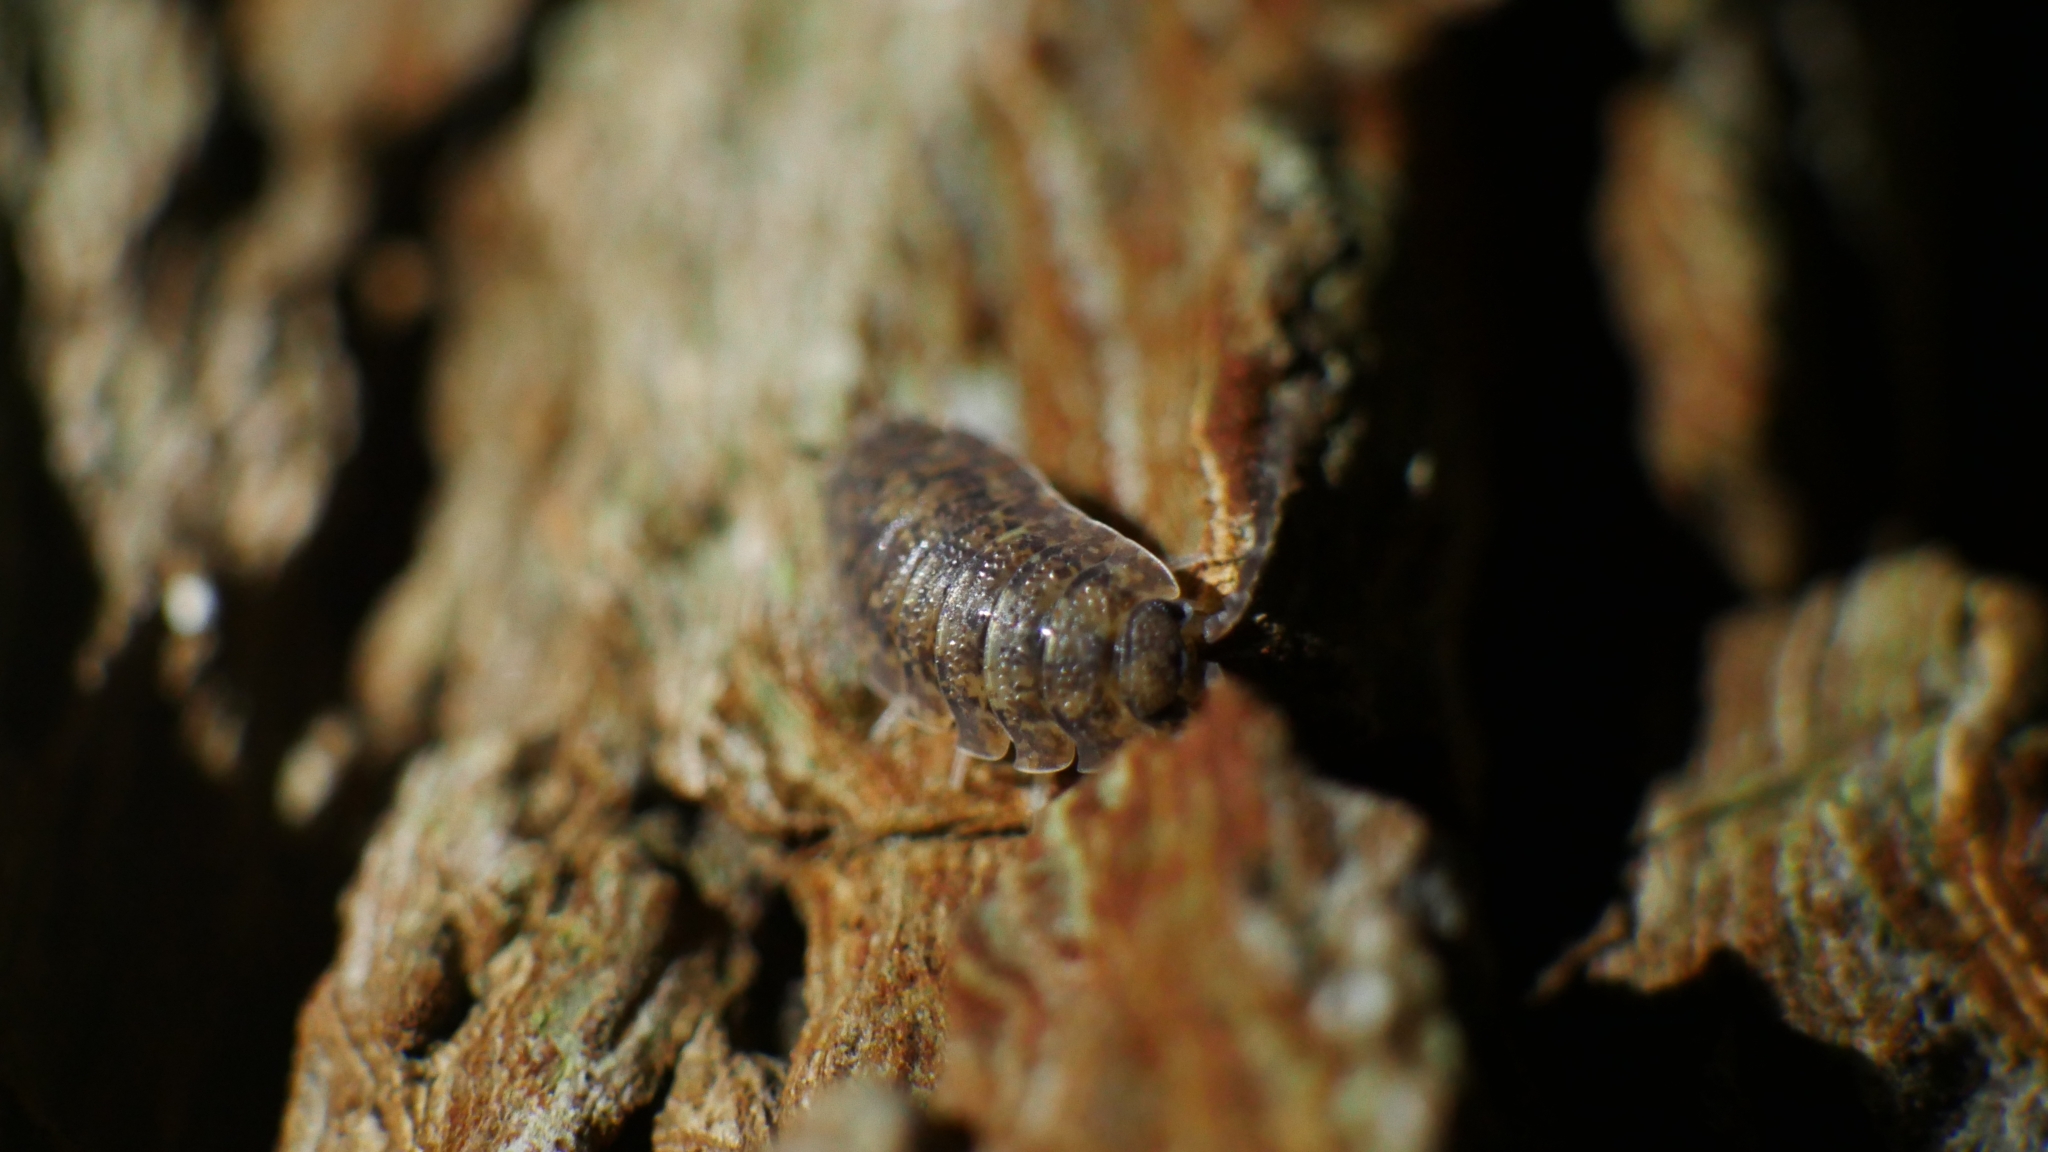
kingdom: Animalia
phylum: Arthropoda
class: Malacostraca
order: Isopoda
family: Porcellionidae
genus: Porcellio
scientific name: Porcellio scaber
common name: Common rough woodlouse
